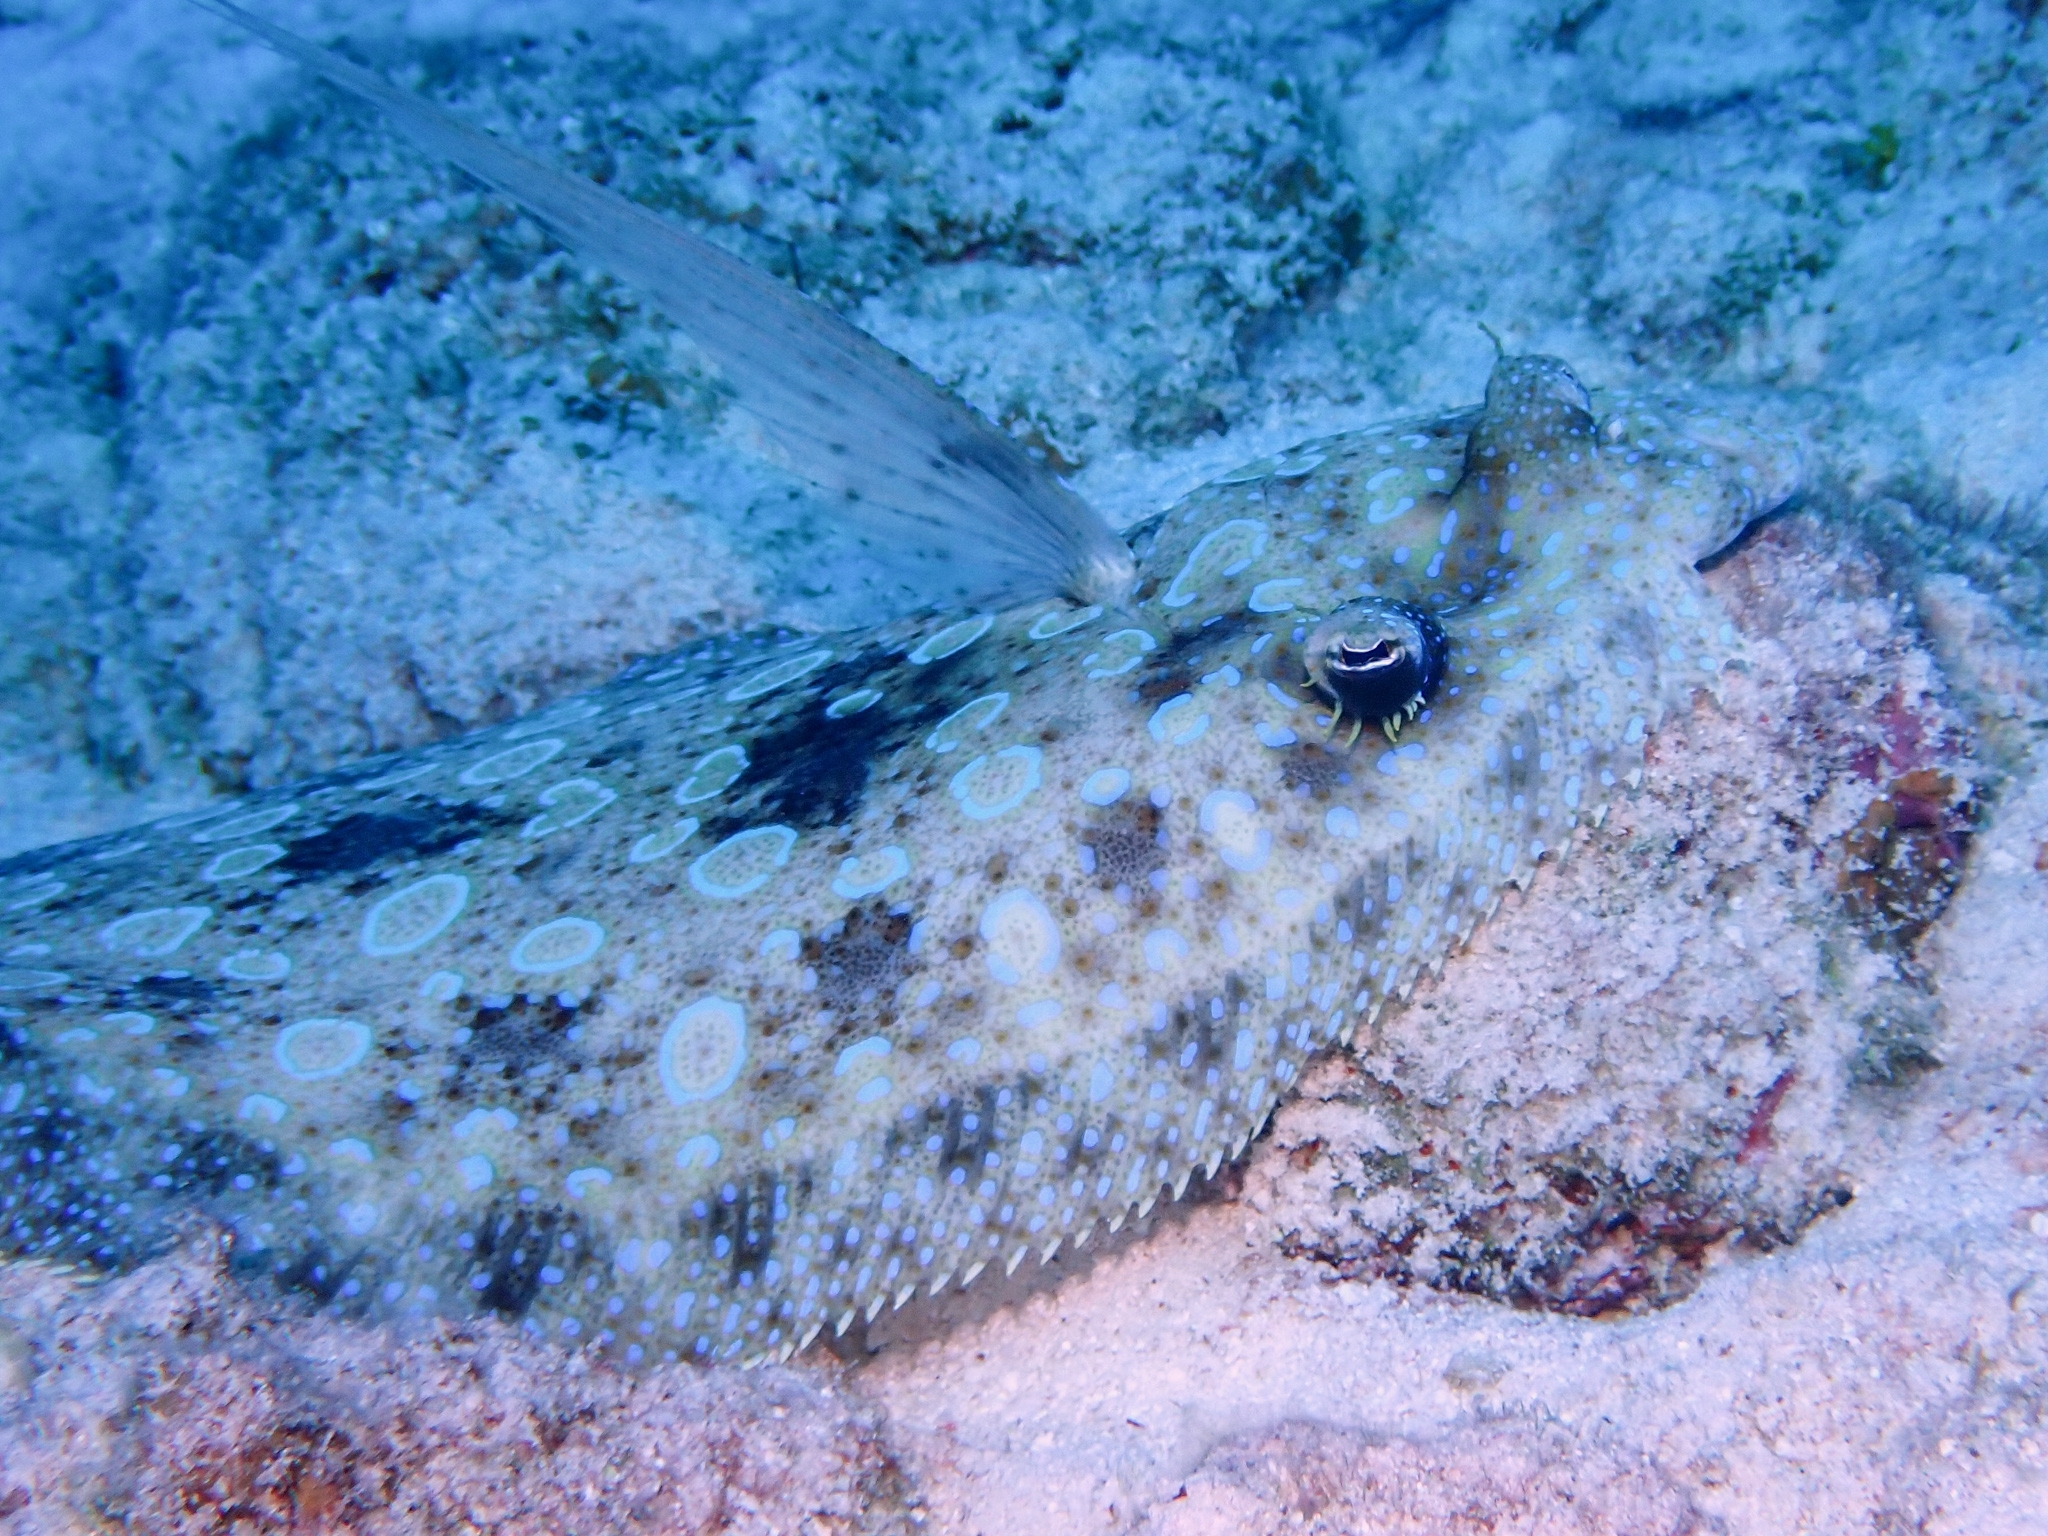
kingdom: Animalia
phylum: Chordata
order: Pleuronectiformes
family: Bothidae
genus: Bothus
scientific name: Bothus lunatus
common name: Peacock flounder
